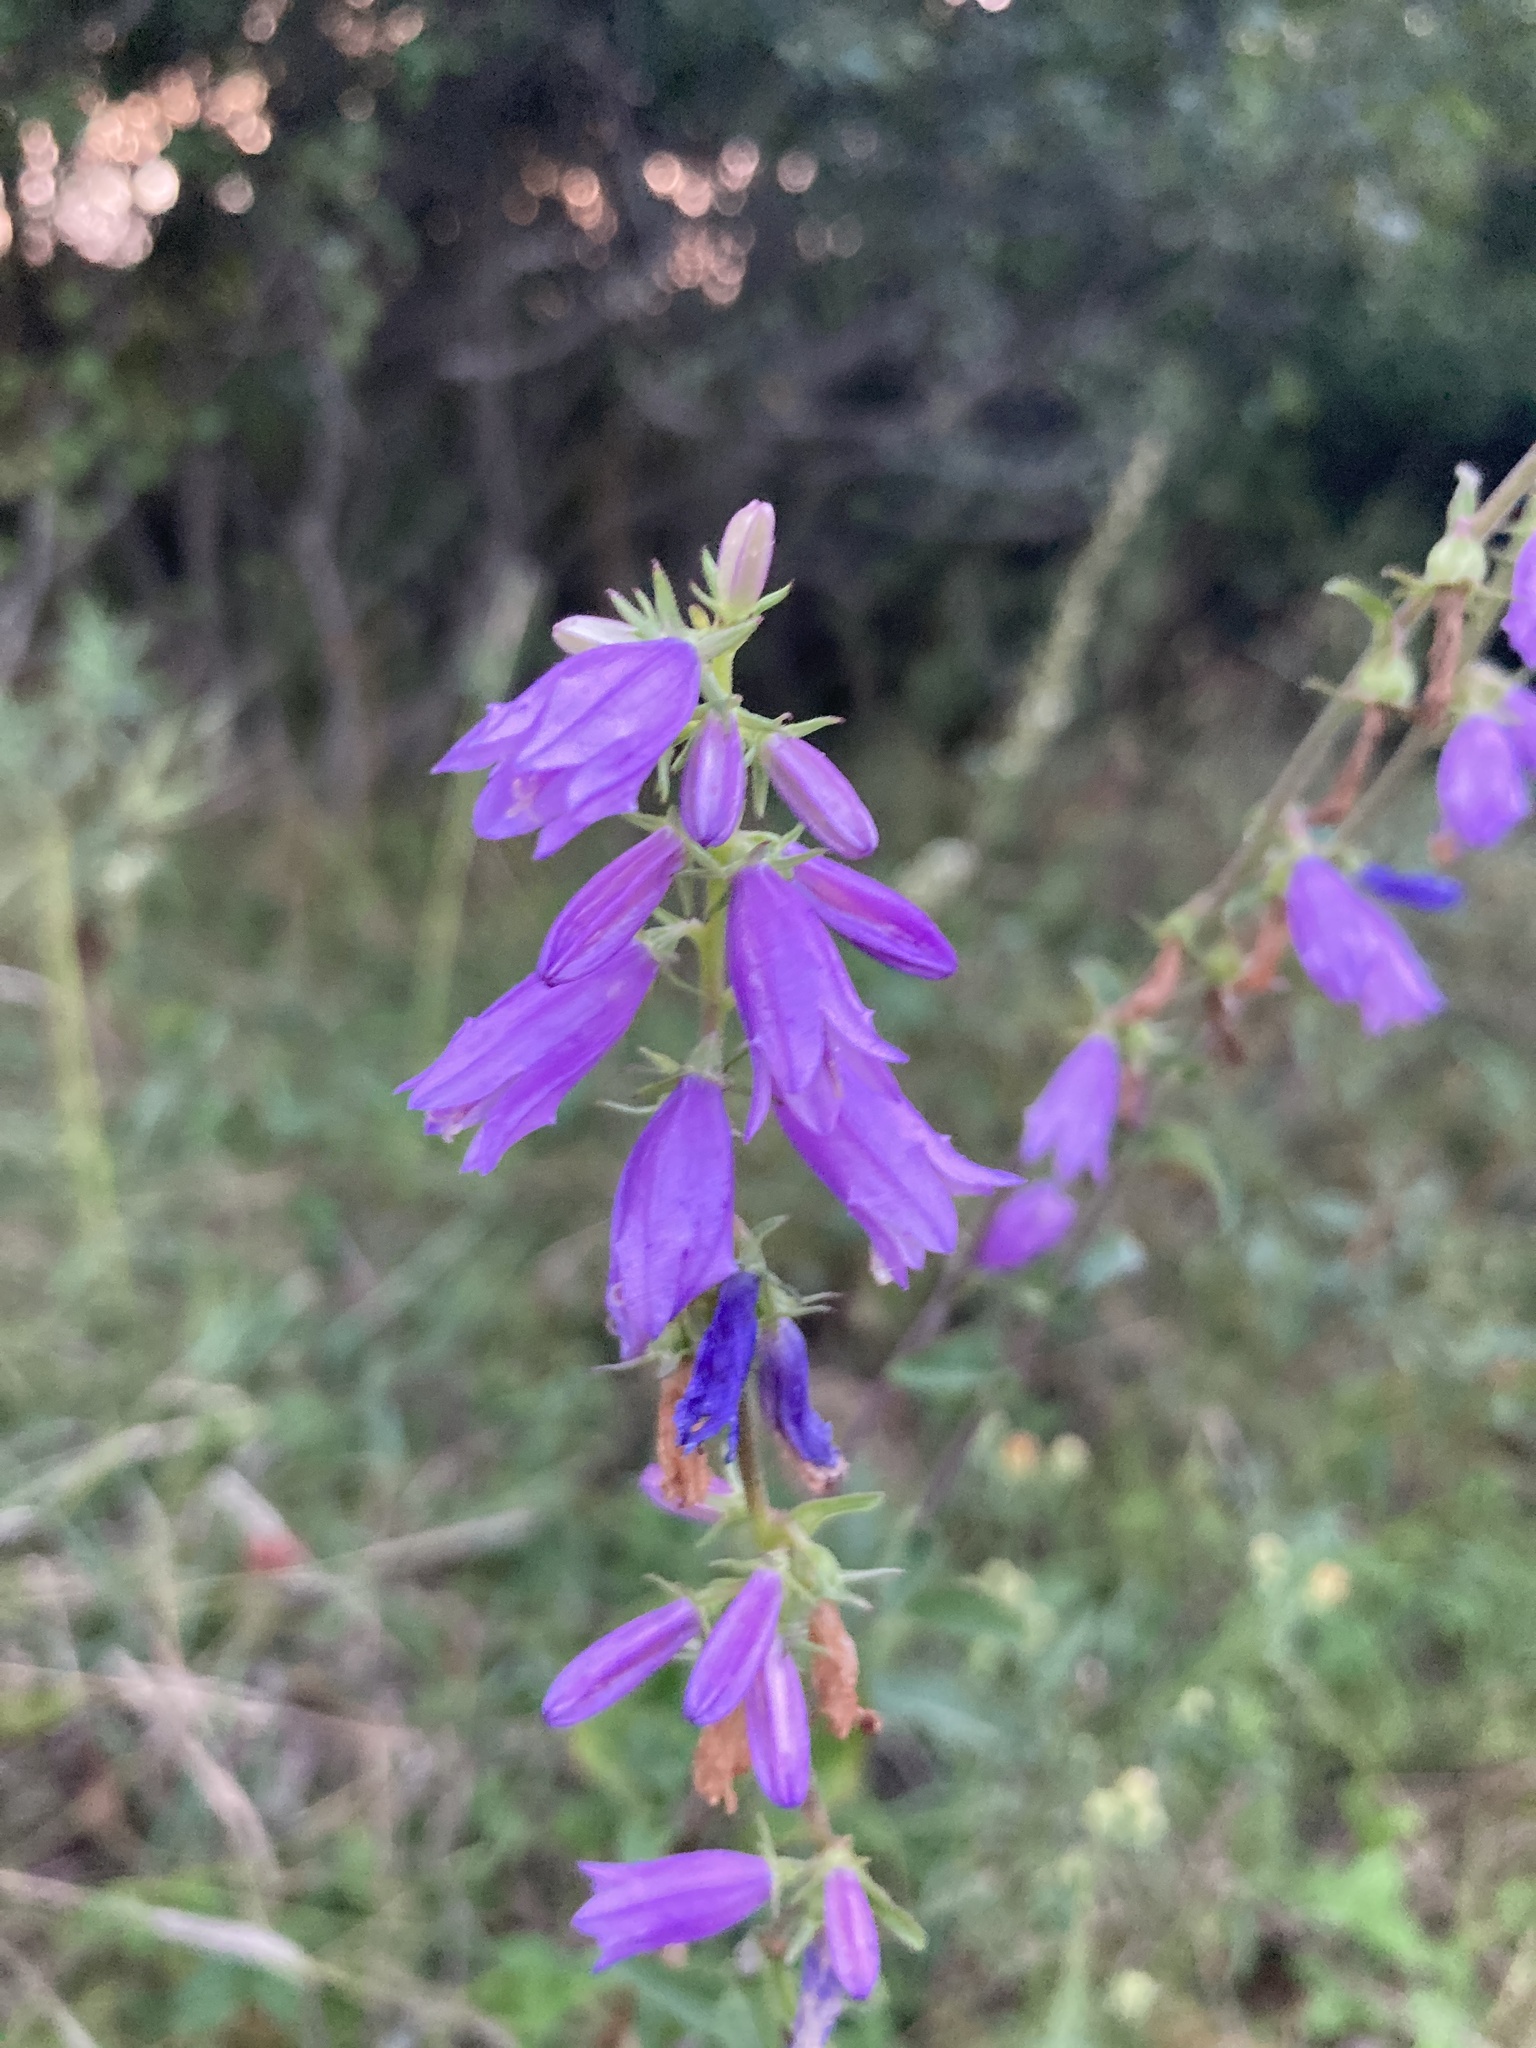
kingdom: Plantae
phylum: Tracheophyta
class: Magnoliopsida
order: Asterales
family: Campanulaceae
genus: Campanula
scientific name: Campanula bononiensis
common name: Pale bellflower
